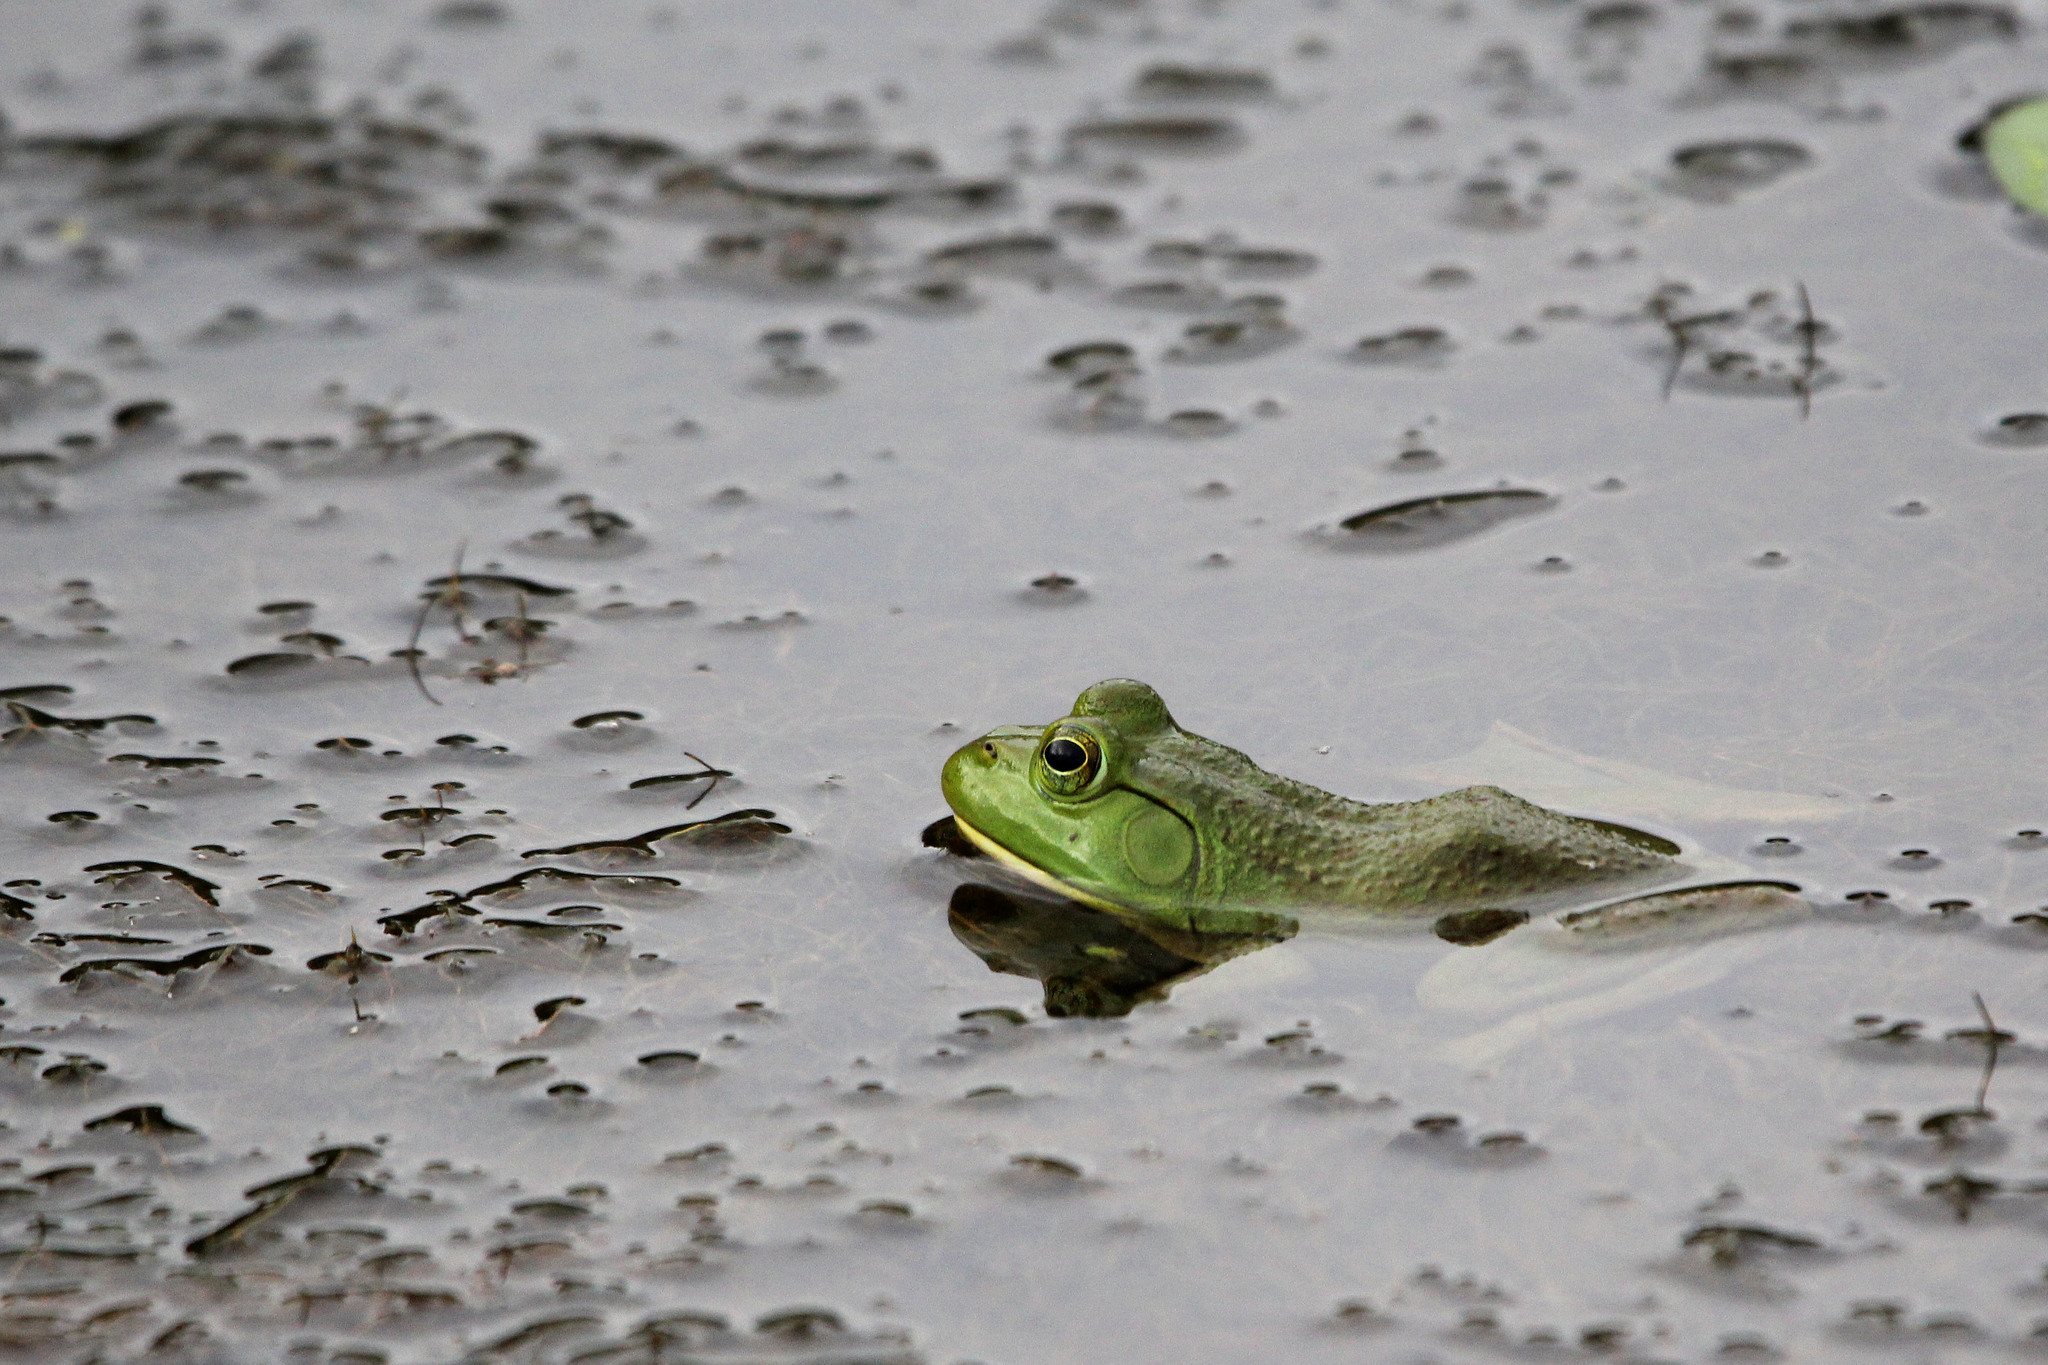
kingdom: Animalia
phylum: Chordata
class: Amphibia
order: Anura
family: Ranidae
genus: Lithobates
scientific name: Lithobates catesbeianus
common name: American bullfrog
